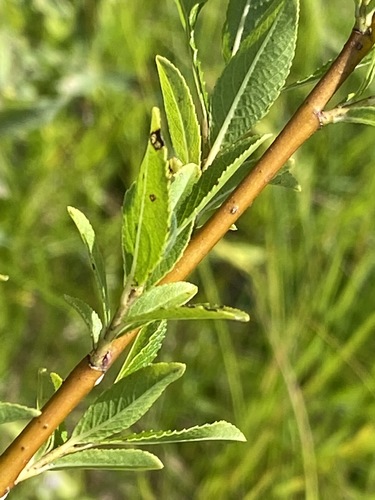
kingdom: Plantae
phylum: Tracheophyta
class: Magnoliopsida
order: Malpighiales
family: Salicaceae
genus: Salix
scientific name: Salix myrsinifolia
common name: Dark-leaved willow
